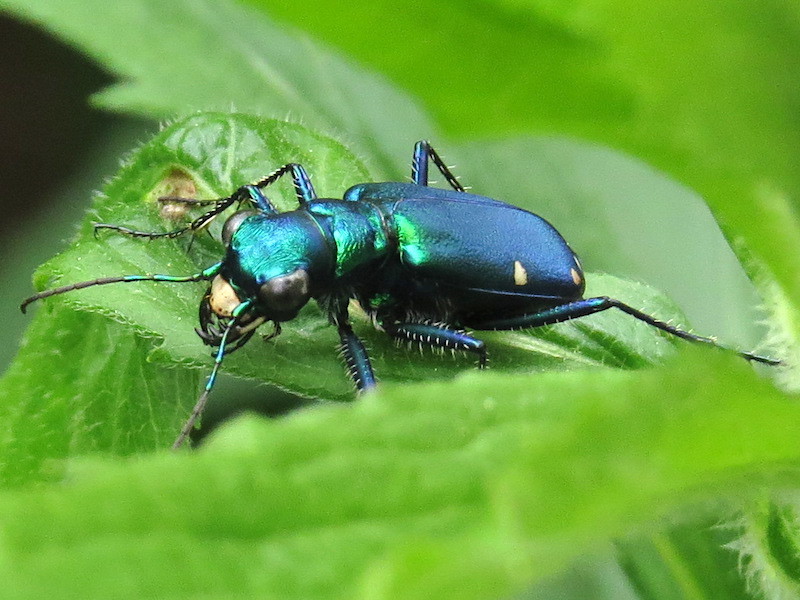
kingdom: Animalia
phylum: Arthropoda
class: Insecta
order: Coleoptera
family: Carabidae
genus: Cicindela
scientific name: Cicindela sexguttata
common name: Six-spotted tiger beetle
